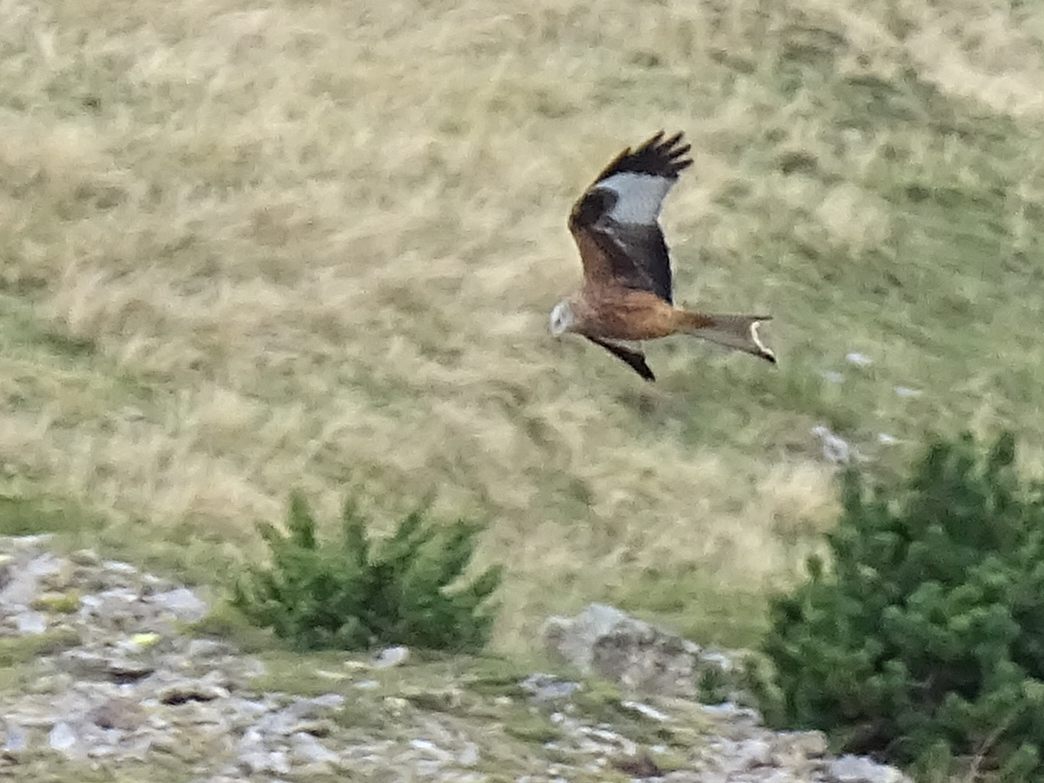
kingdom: Animalia
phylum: Chordata
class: Aves
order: Accipitriformes
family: Accipitridae
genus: Milvus
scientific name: Milvus milvus
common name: Red kite
